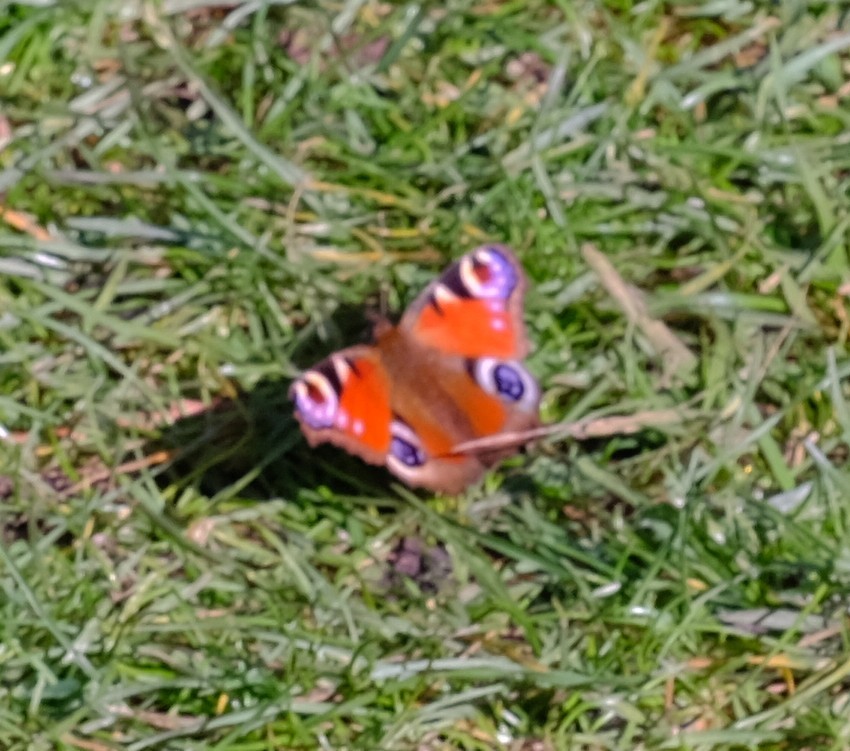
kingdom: Animalia
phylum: Arthropoda
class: Insecta
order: Lepidoptera
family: Nymphalidae
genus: Aglais
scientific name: Aglais io
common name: Peacock
